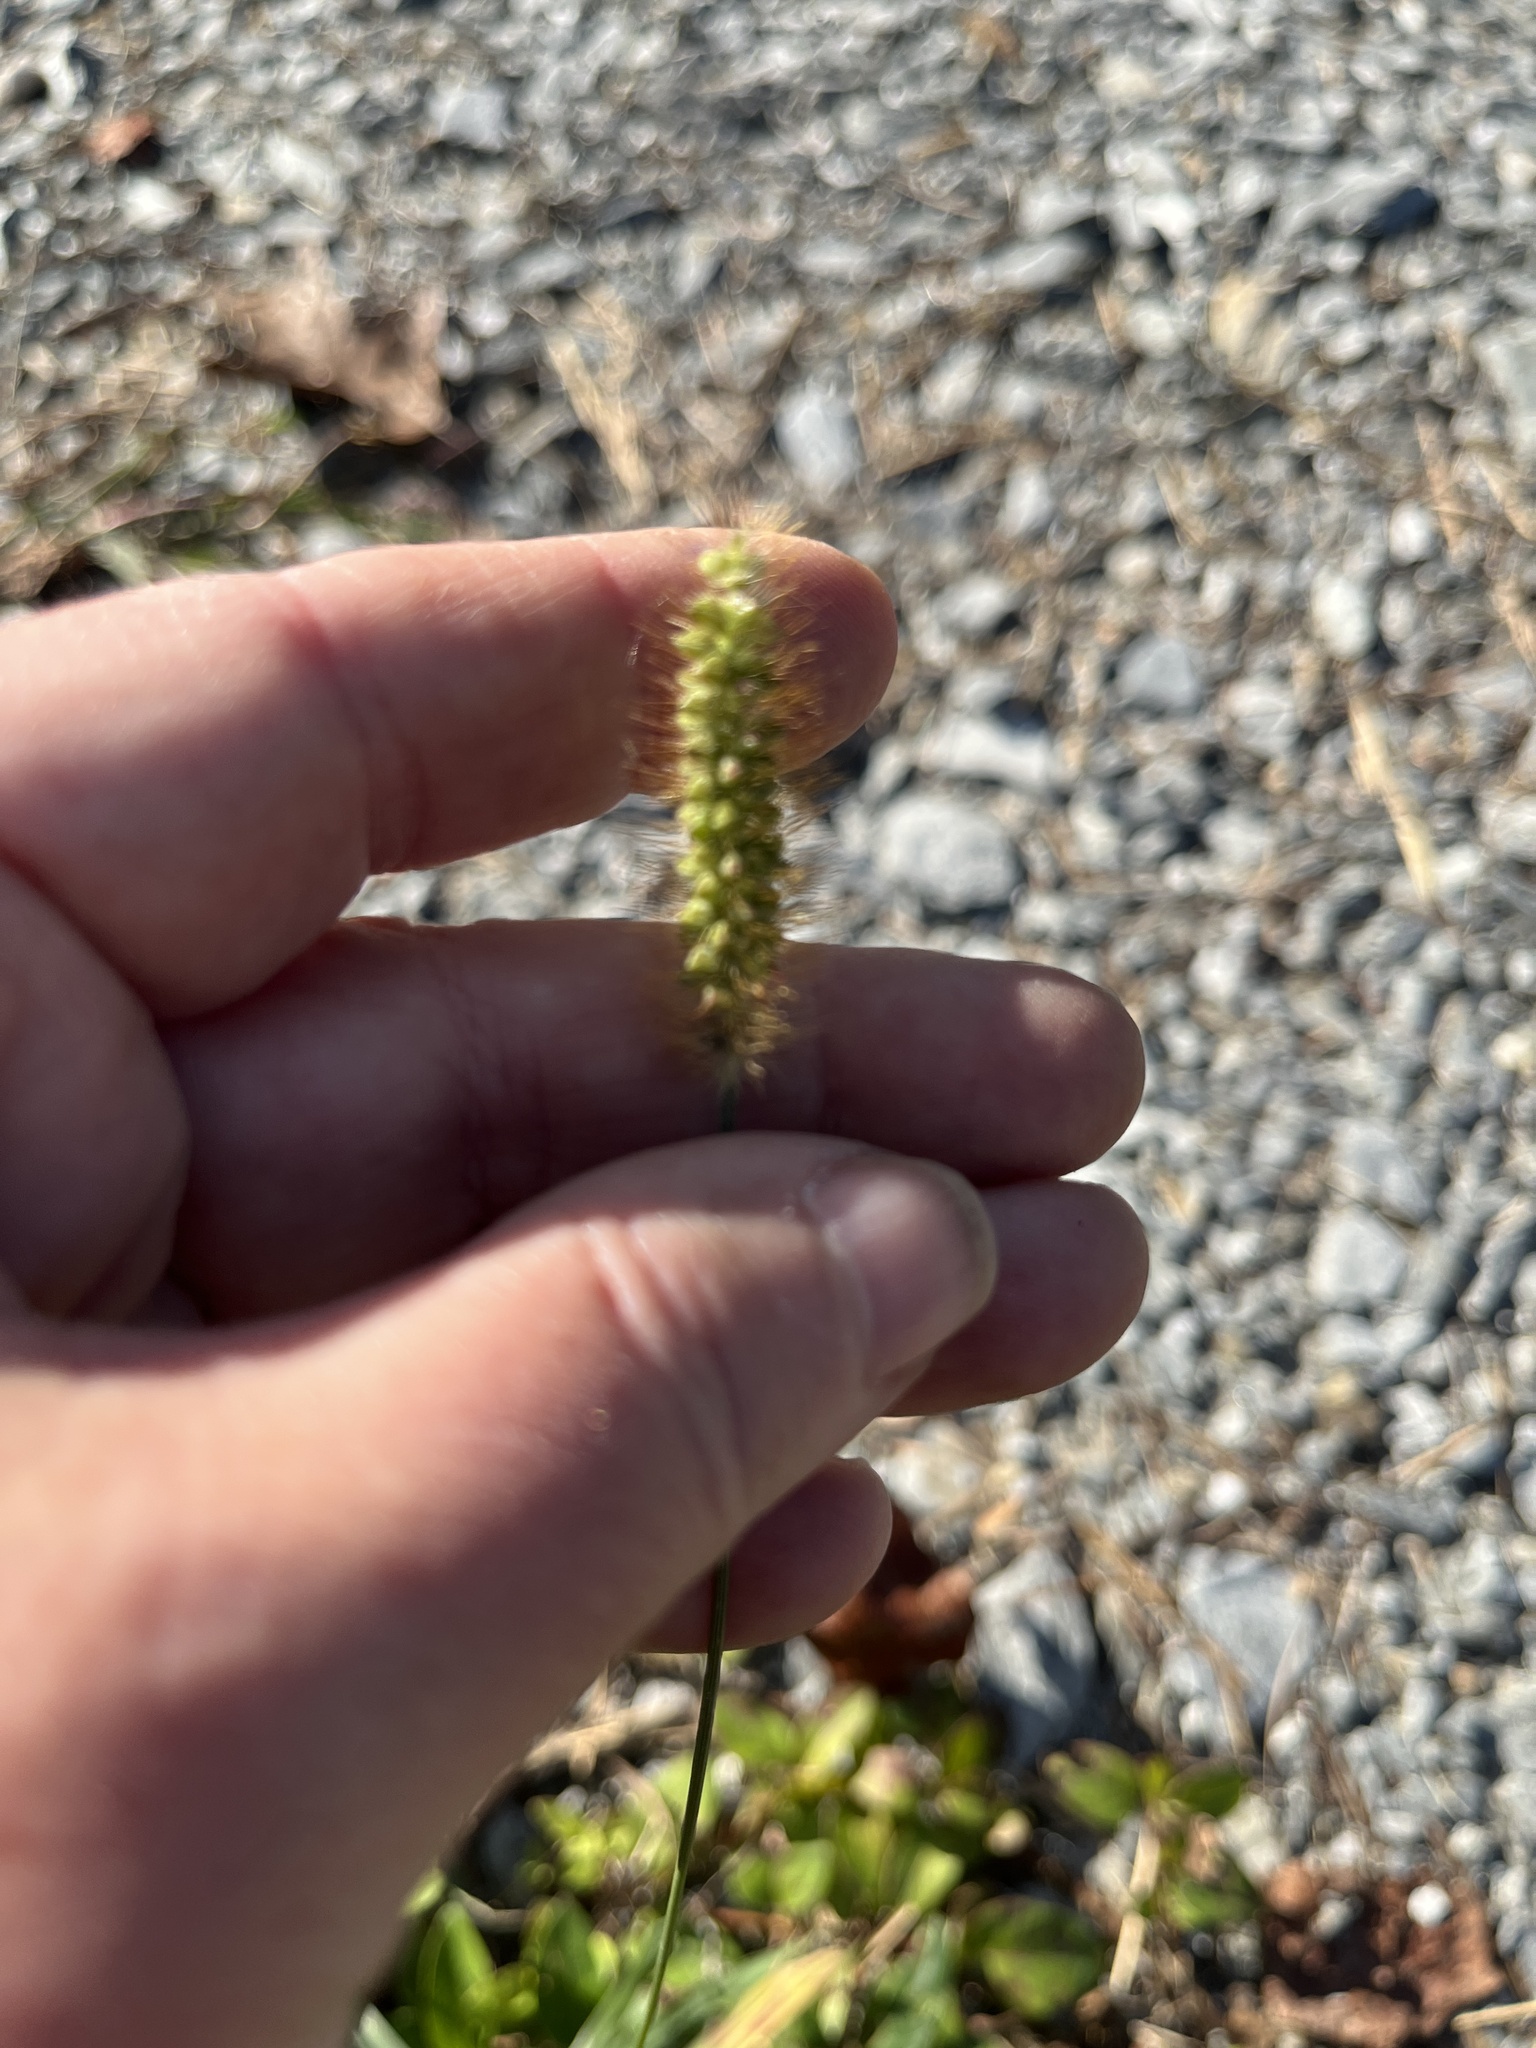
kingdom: Plantae
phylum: Tracheophyta
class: Liliopsida
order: Poales
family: Poaceae
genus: Setaria
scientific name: Setaria pumila
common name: Yellow bristle-grass
